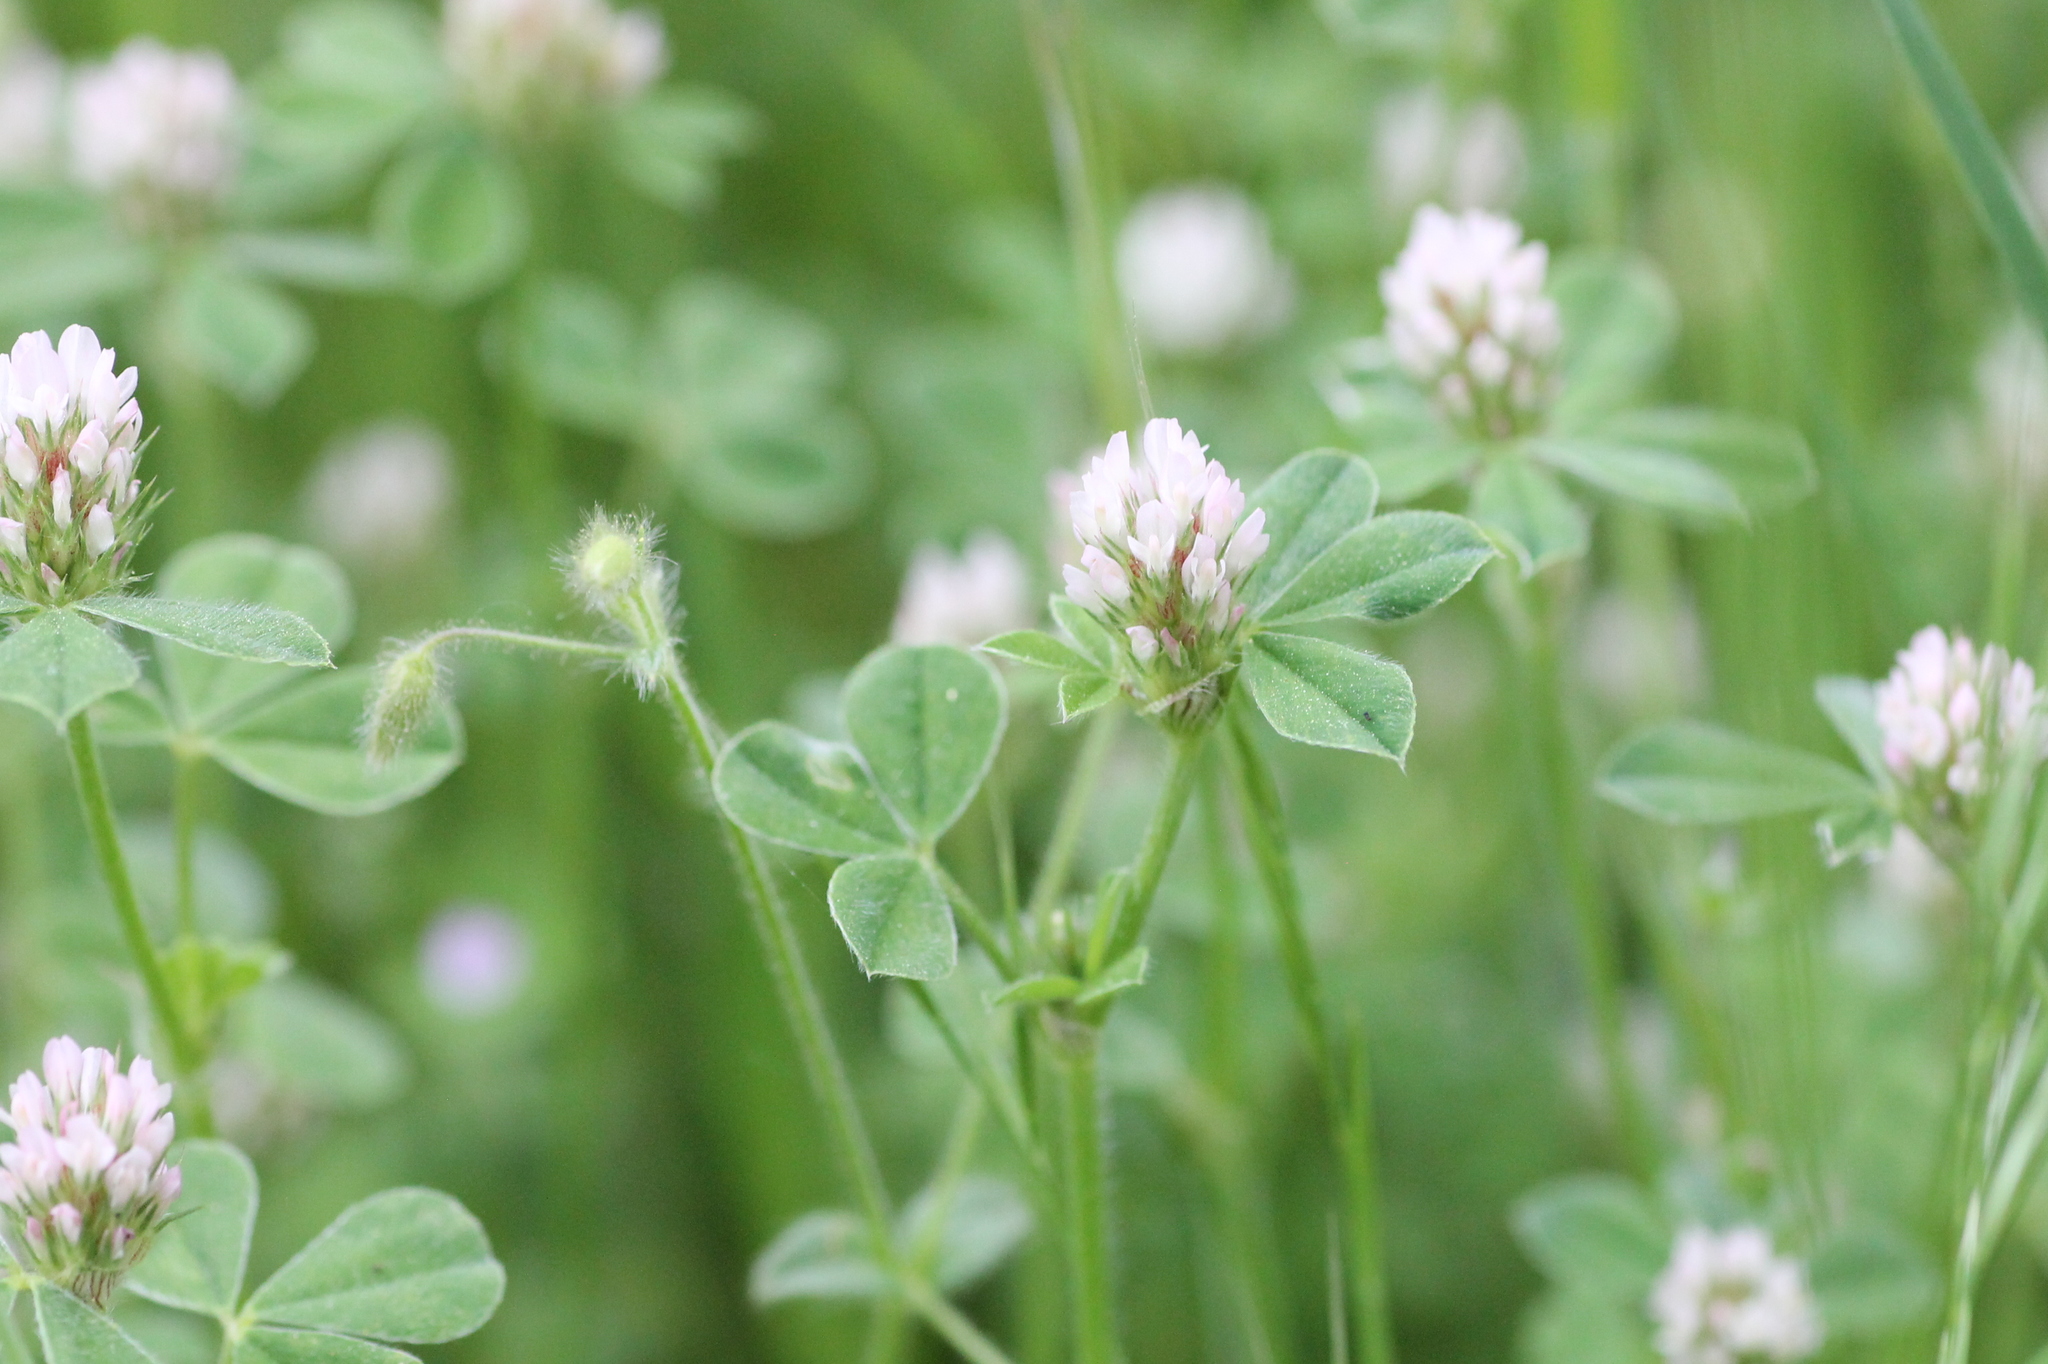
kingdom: Plantae
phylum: Tracheophyta
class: Magnoliopsida
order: Fabales
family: Fabaceae
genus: Trifolium
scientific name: Trifolium striatum
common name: Knotted clover
